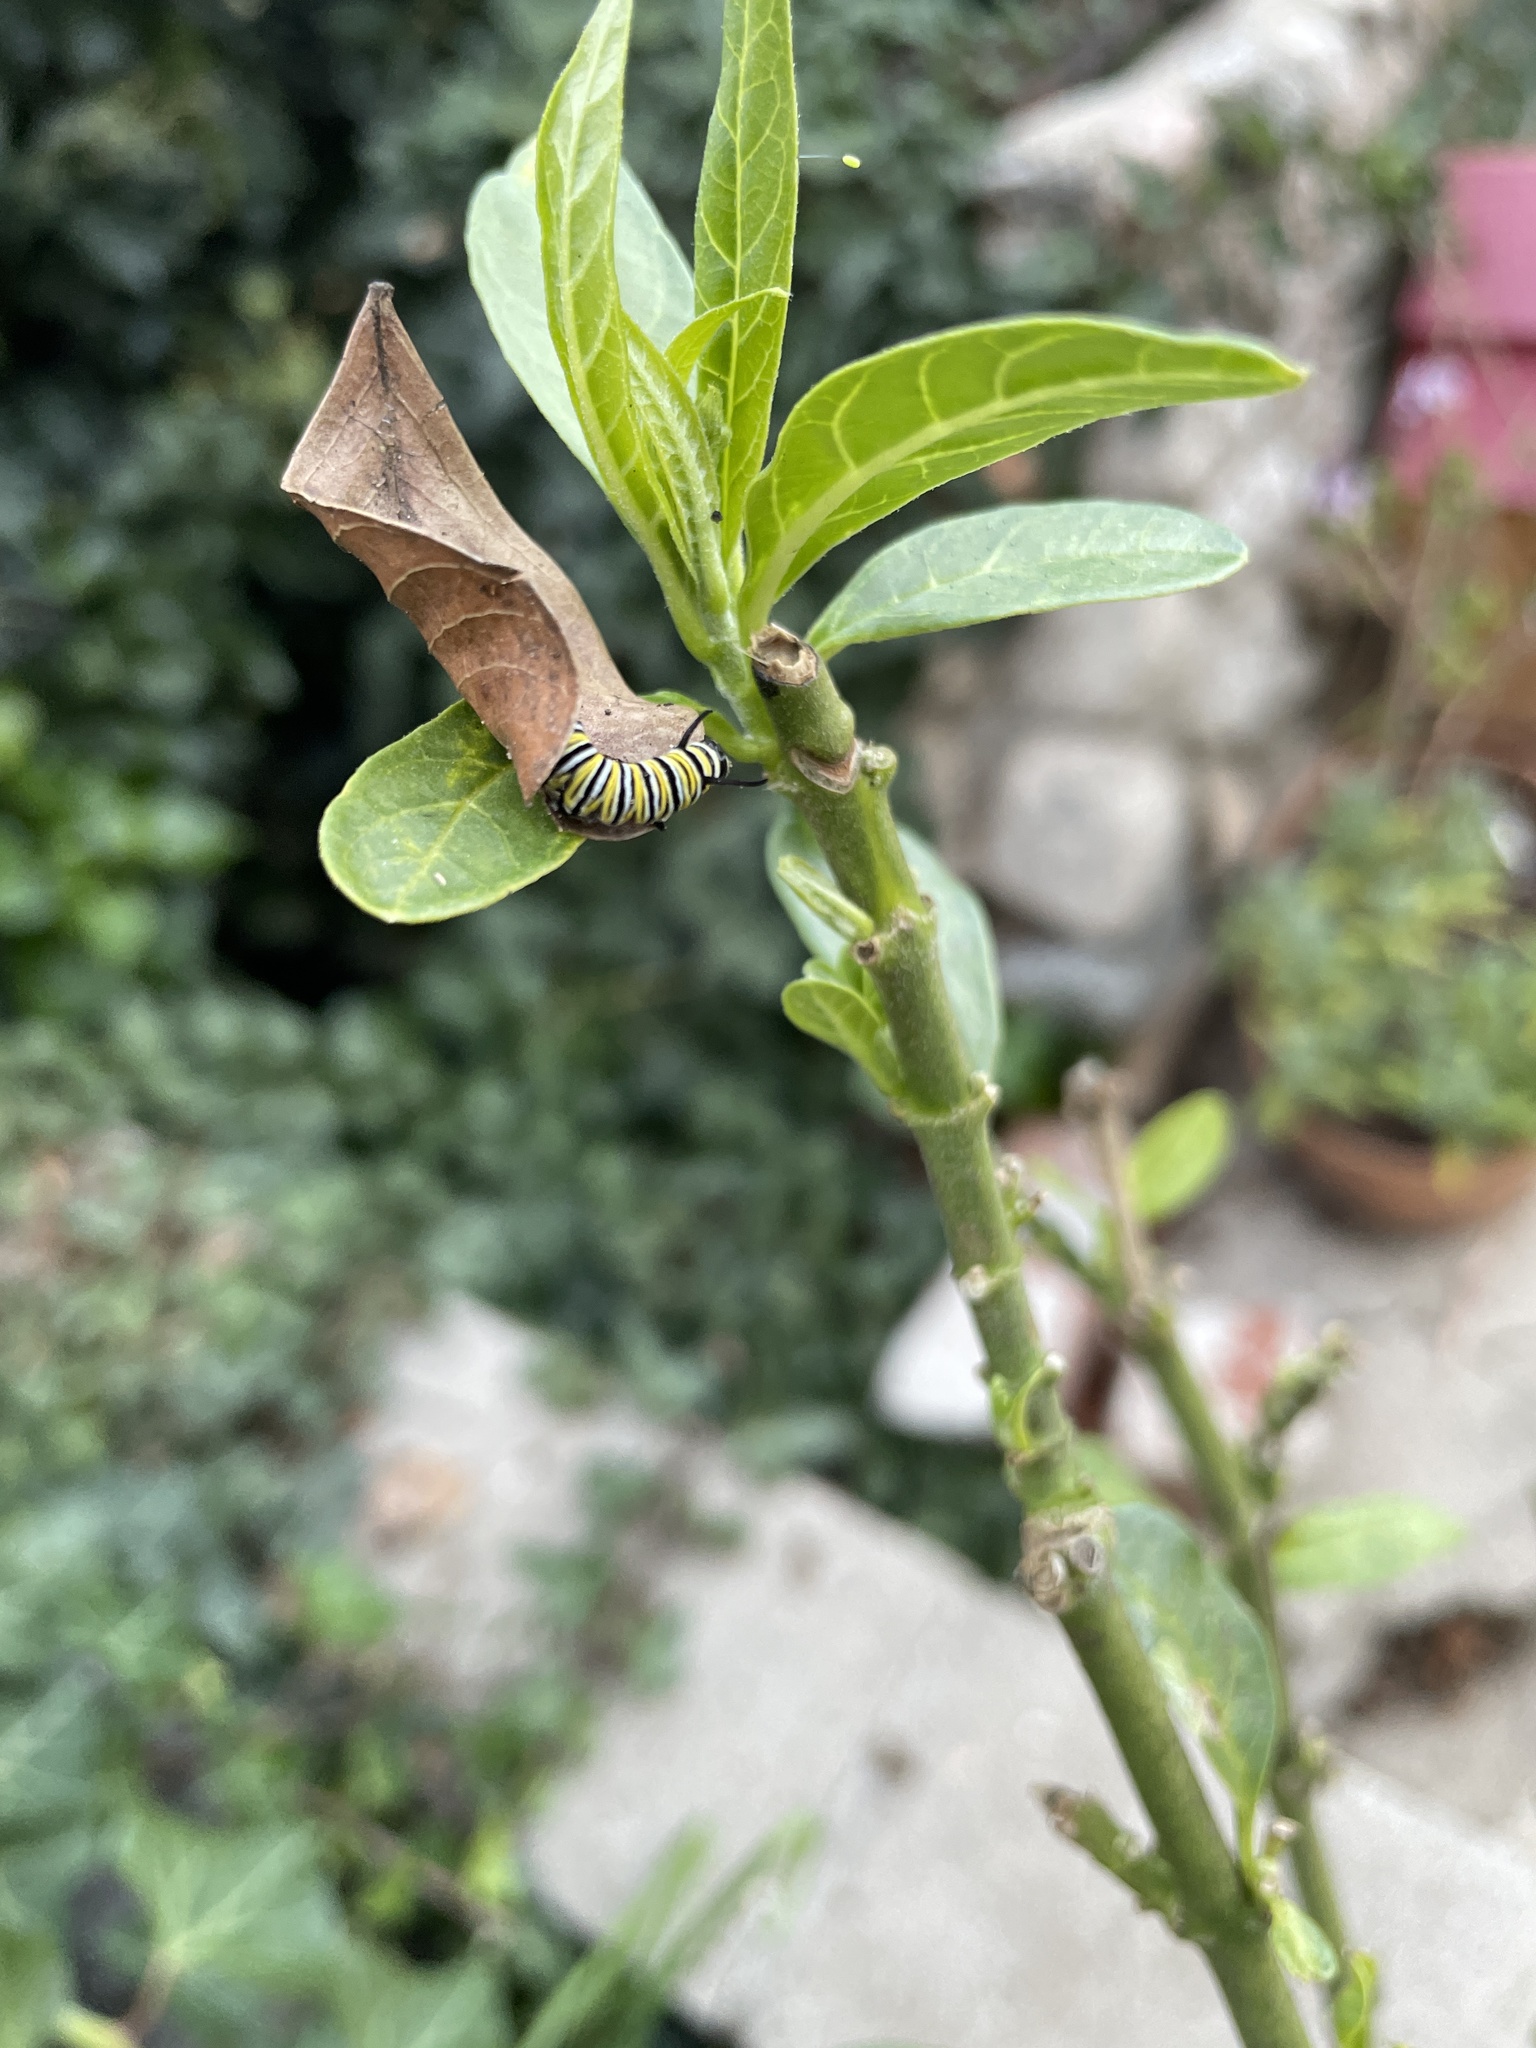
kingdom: Animalia
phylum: Arthropoda
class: Insecta
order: Lepidoptera
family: Nymphalidae
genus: Danaus
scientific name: Danaus plexippus
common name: Monarch
